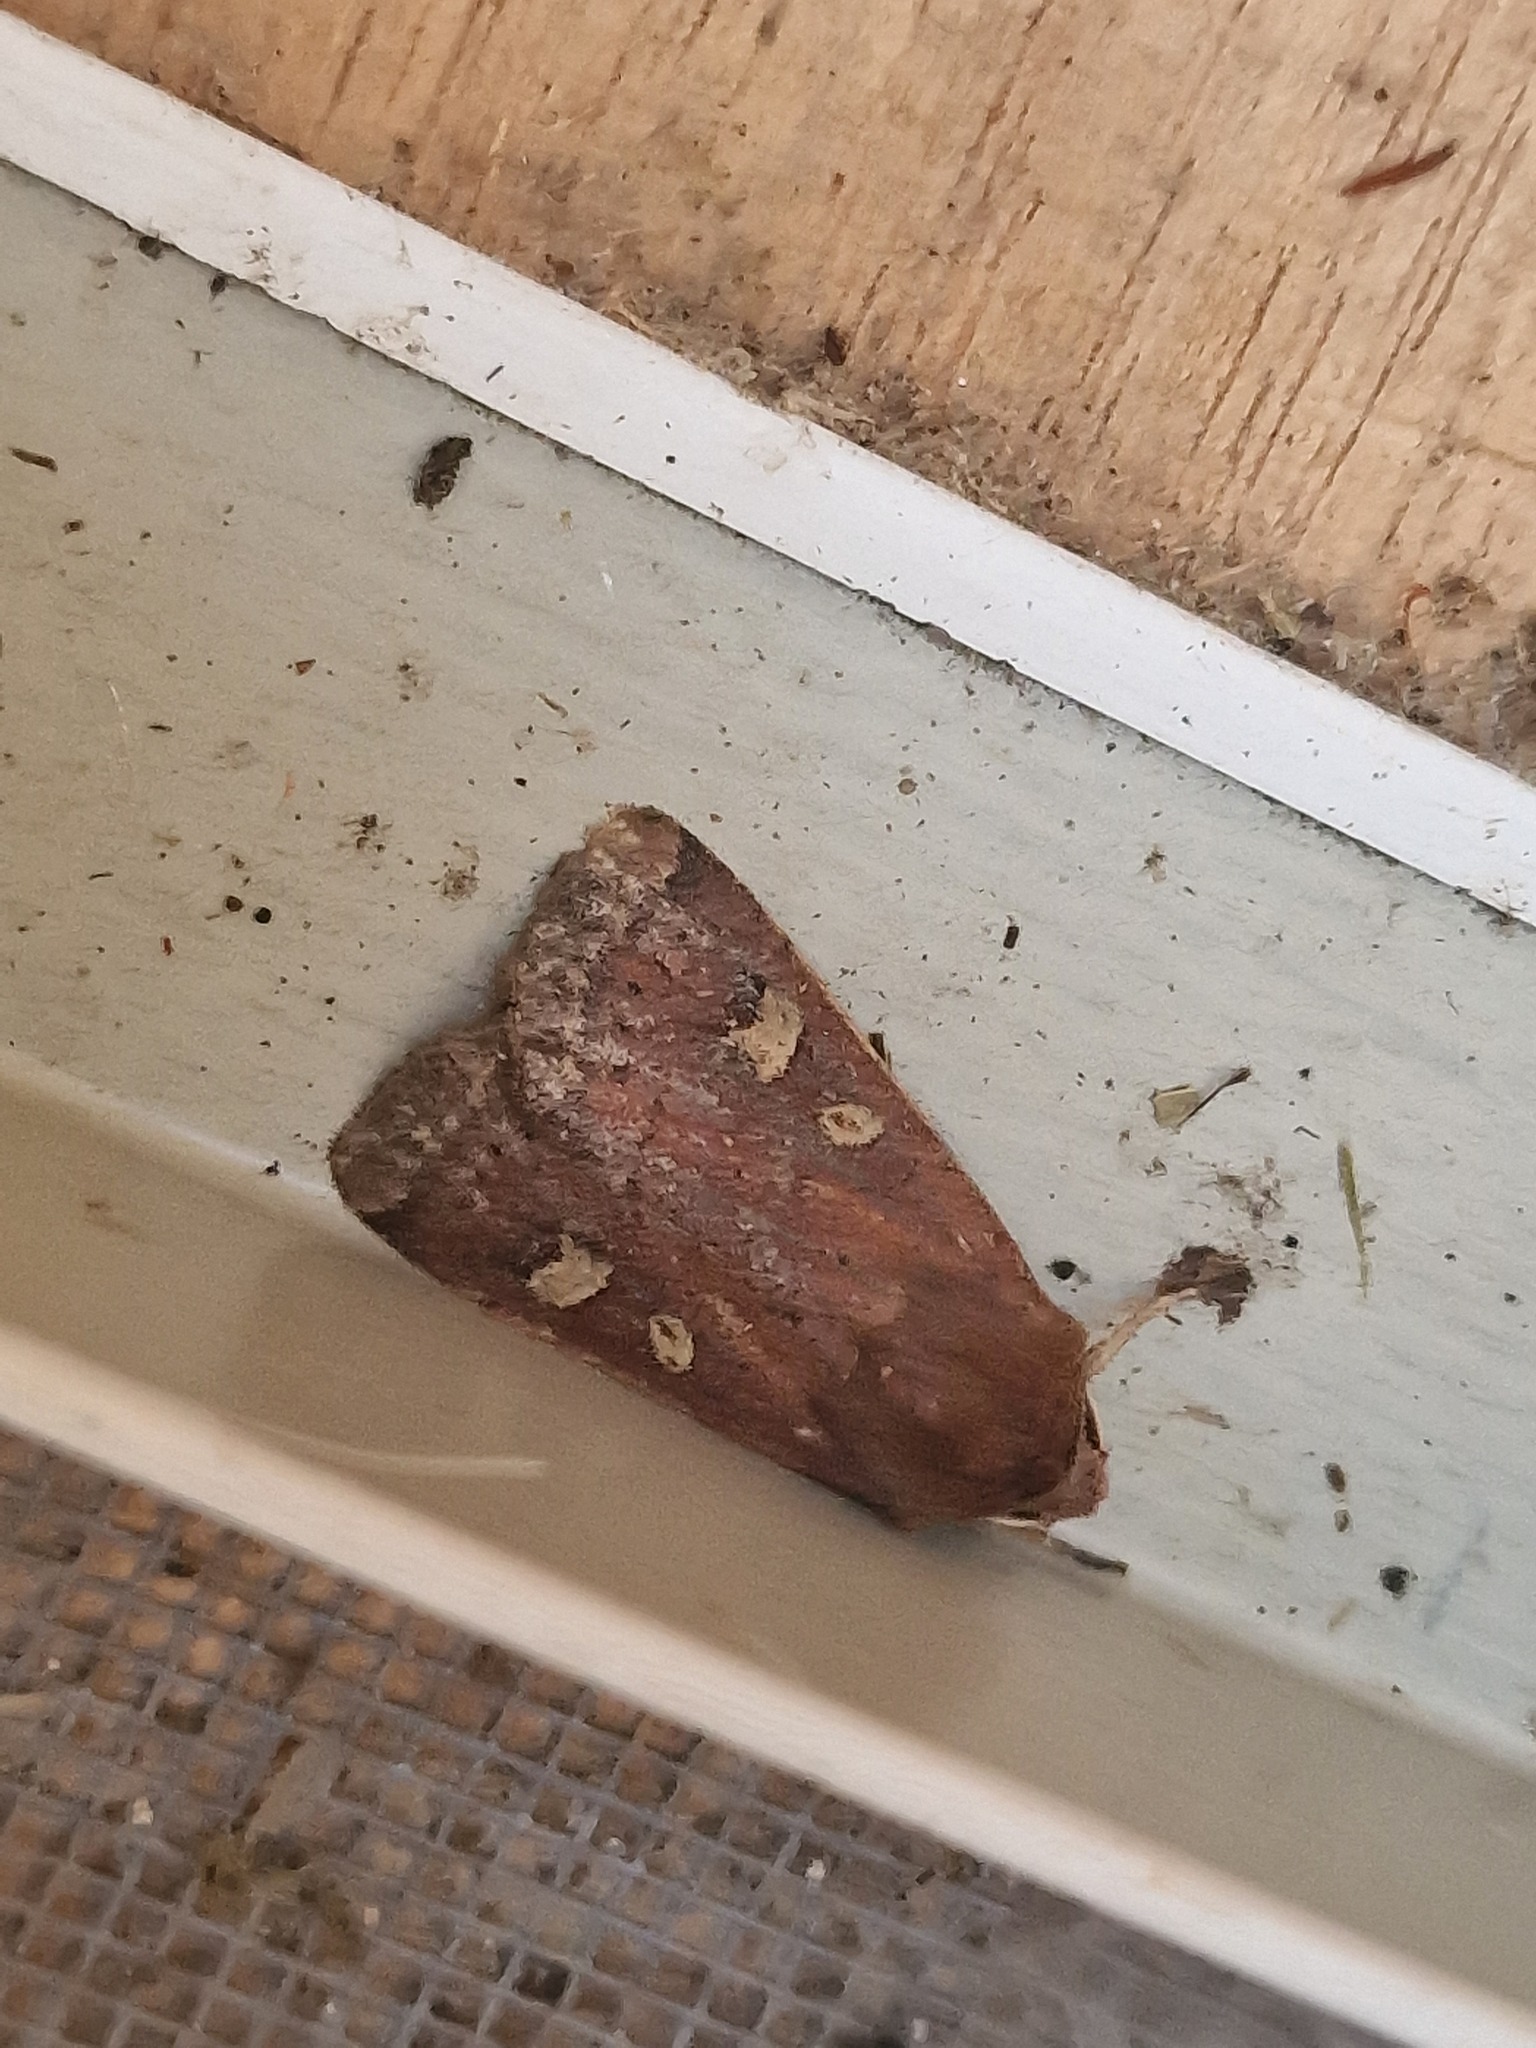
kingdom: Animalia
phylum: Arthropoda
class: Insecta
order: Lepidoptera
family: Noctuidae
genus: Xestia
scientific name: Xestia xanthographa
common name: Square-spot rustic
